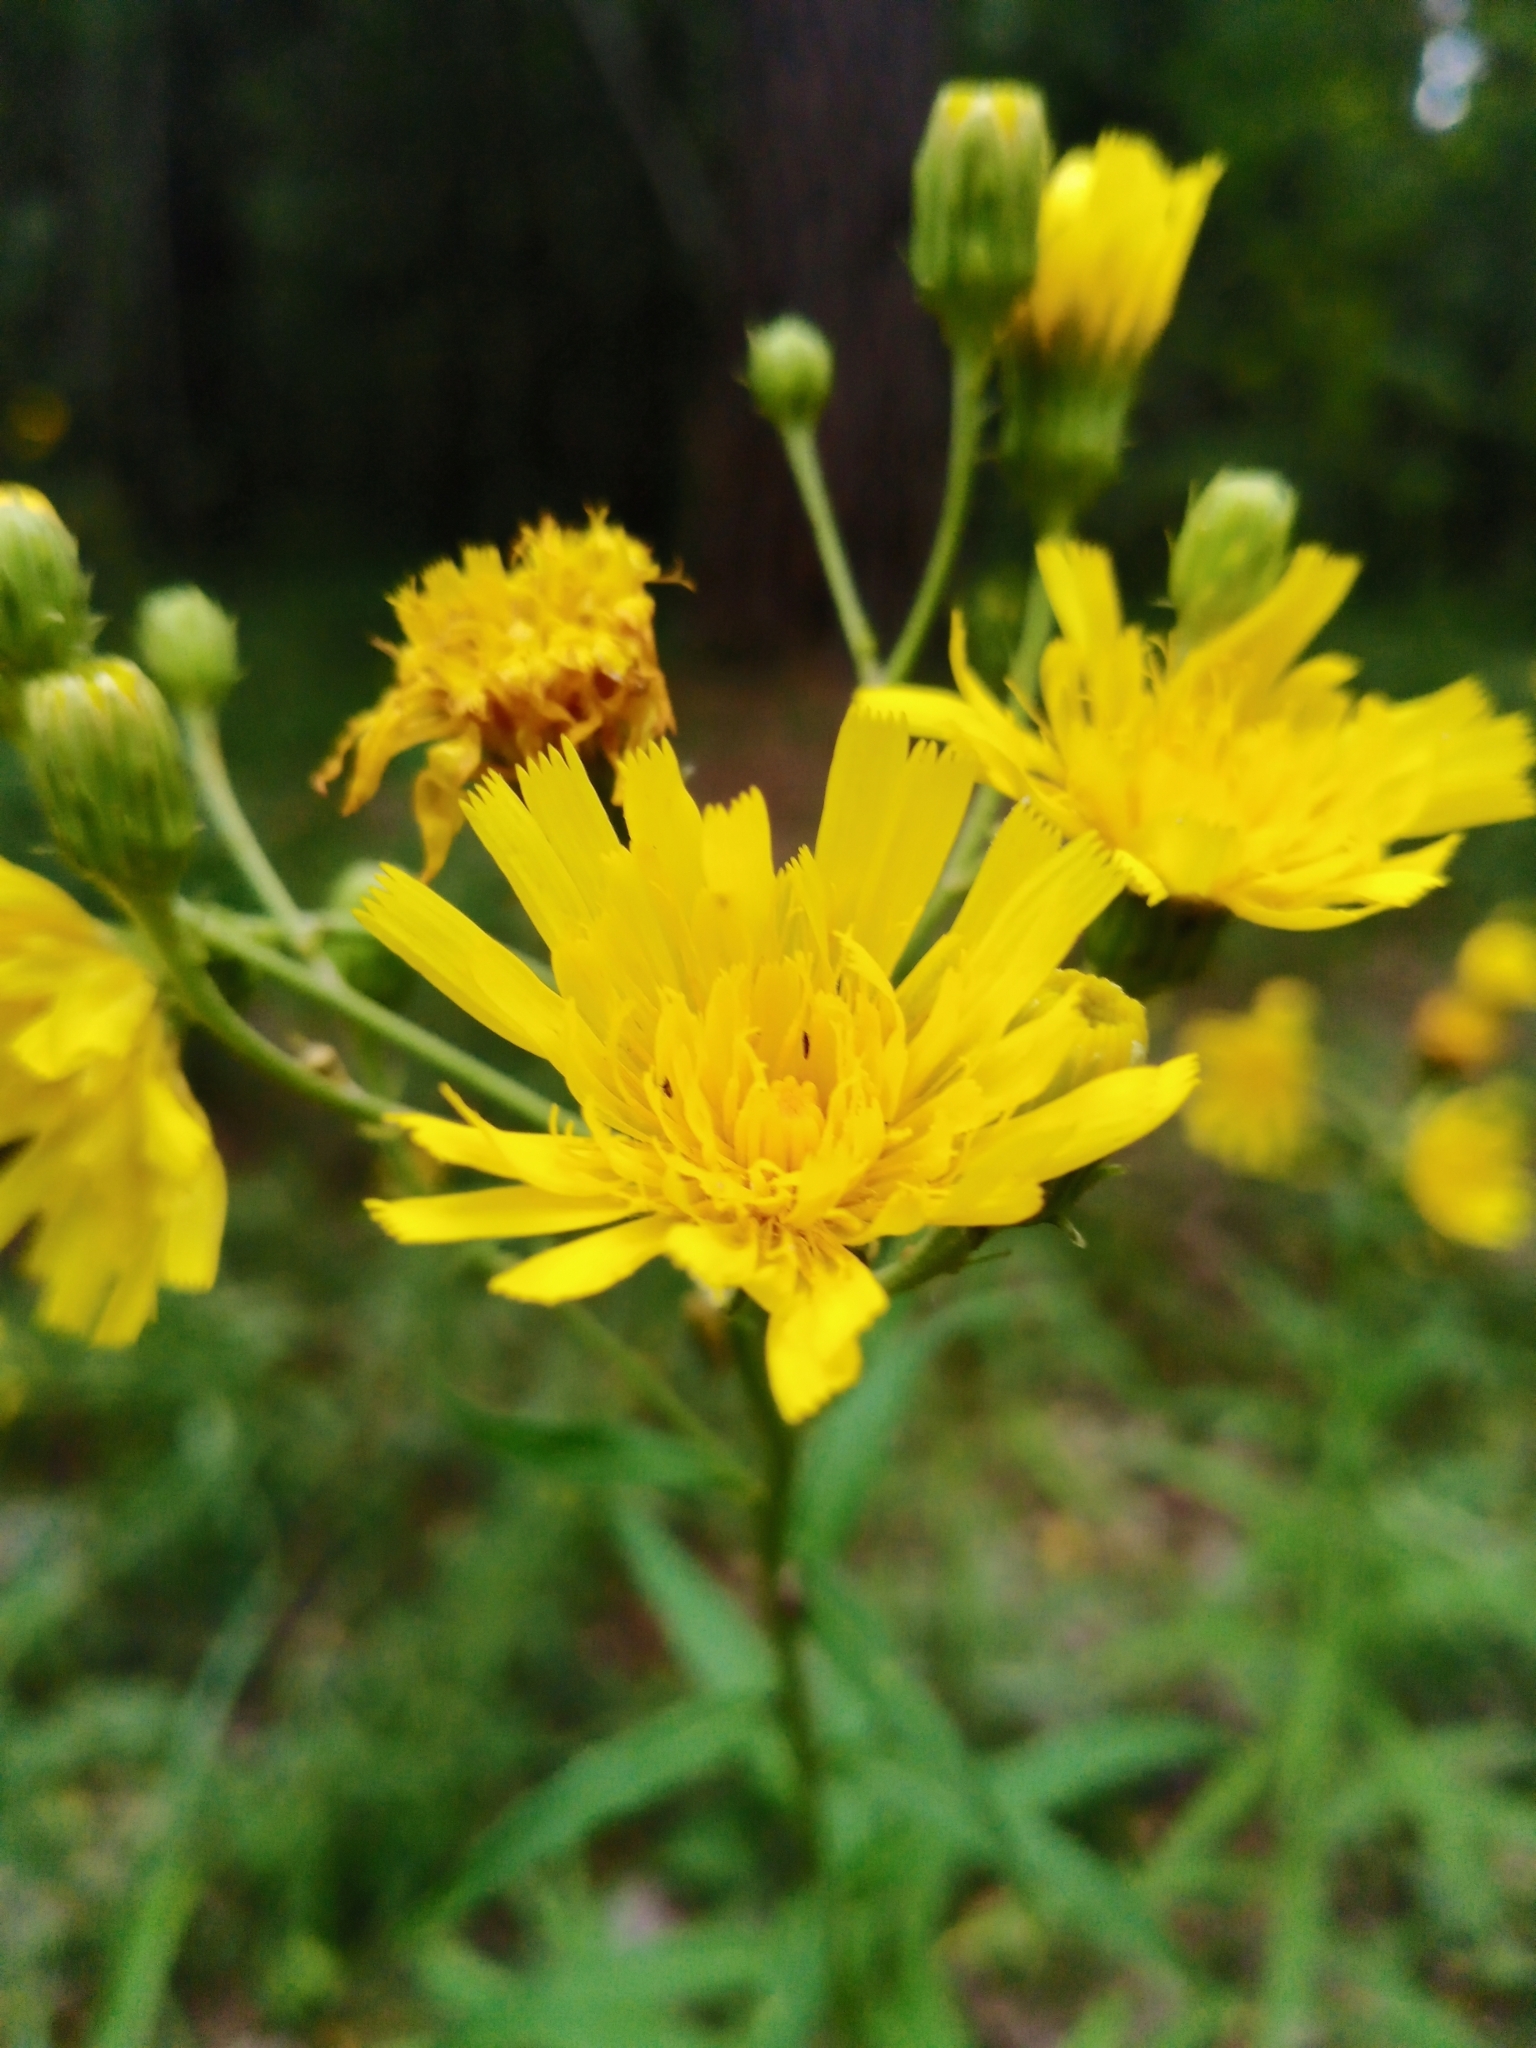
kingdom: Plantae
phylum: Tracheophyta
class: Magnoliopsida
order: Asterales
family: Asteraceae
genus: Hieracium
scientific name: Hieracium umbellatum
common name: Northern hawkweed
